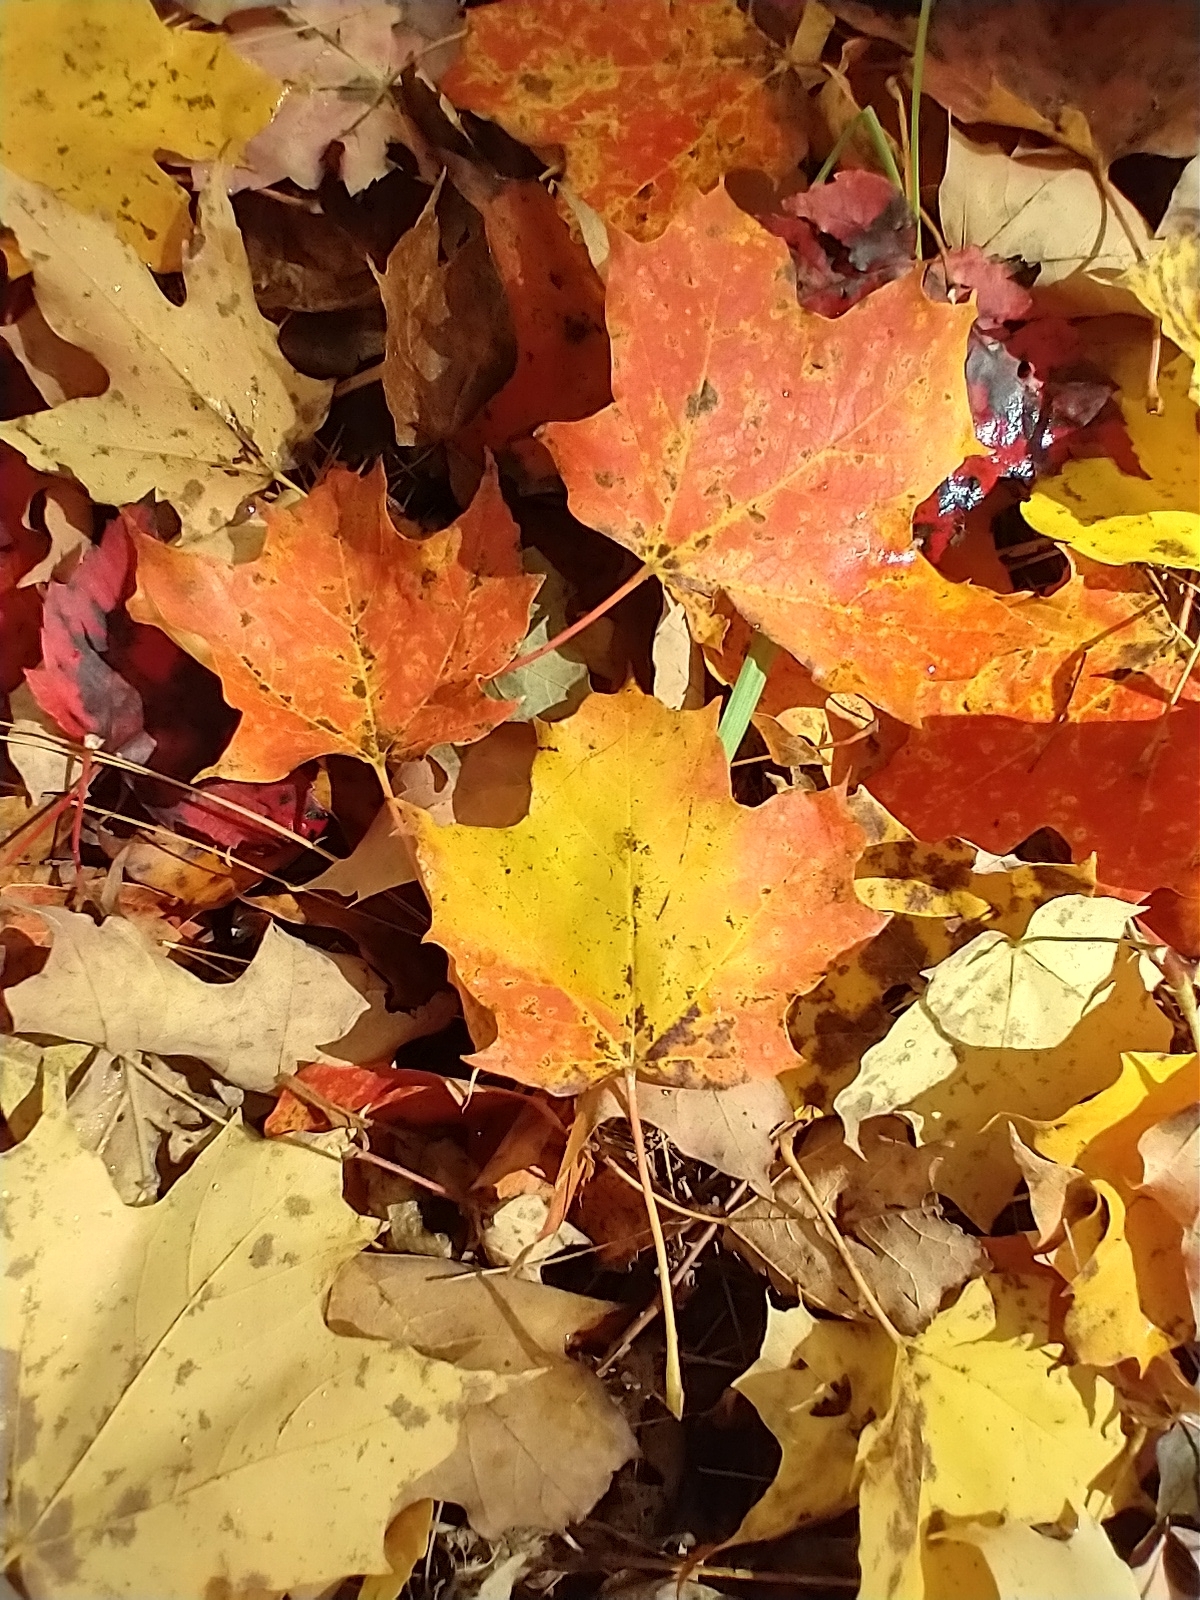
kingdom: Plantae
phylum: Tracheophyta
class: Magnoliopsida
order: Sapindales
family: Sapindaceae
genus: Acer
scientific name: Acer saccharum
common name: Sugar maple
